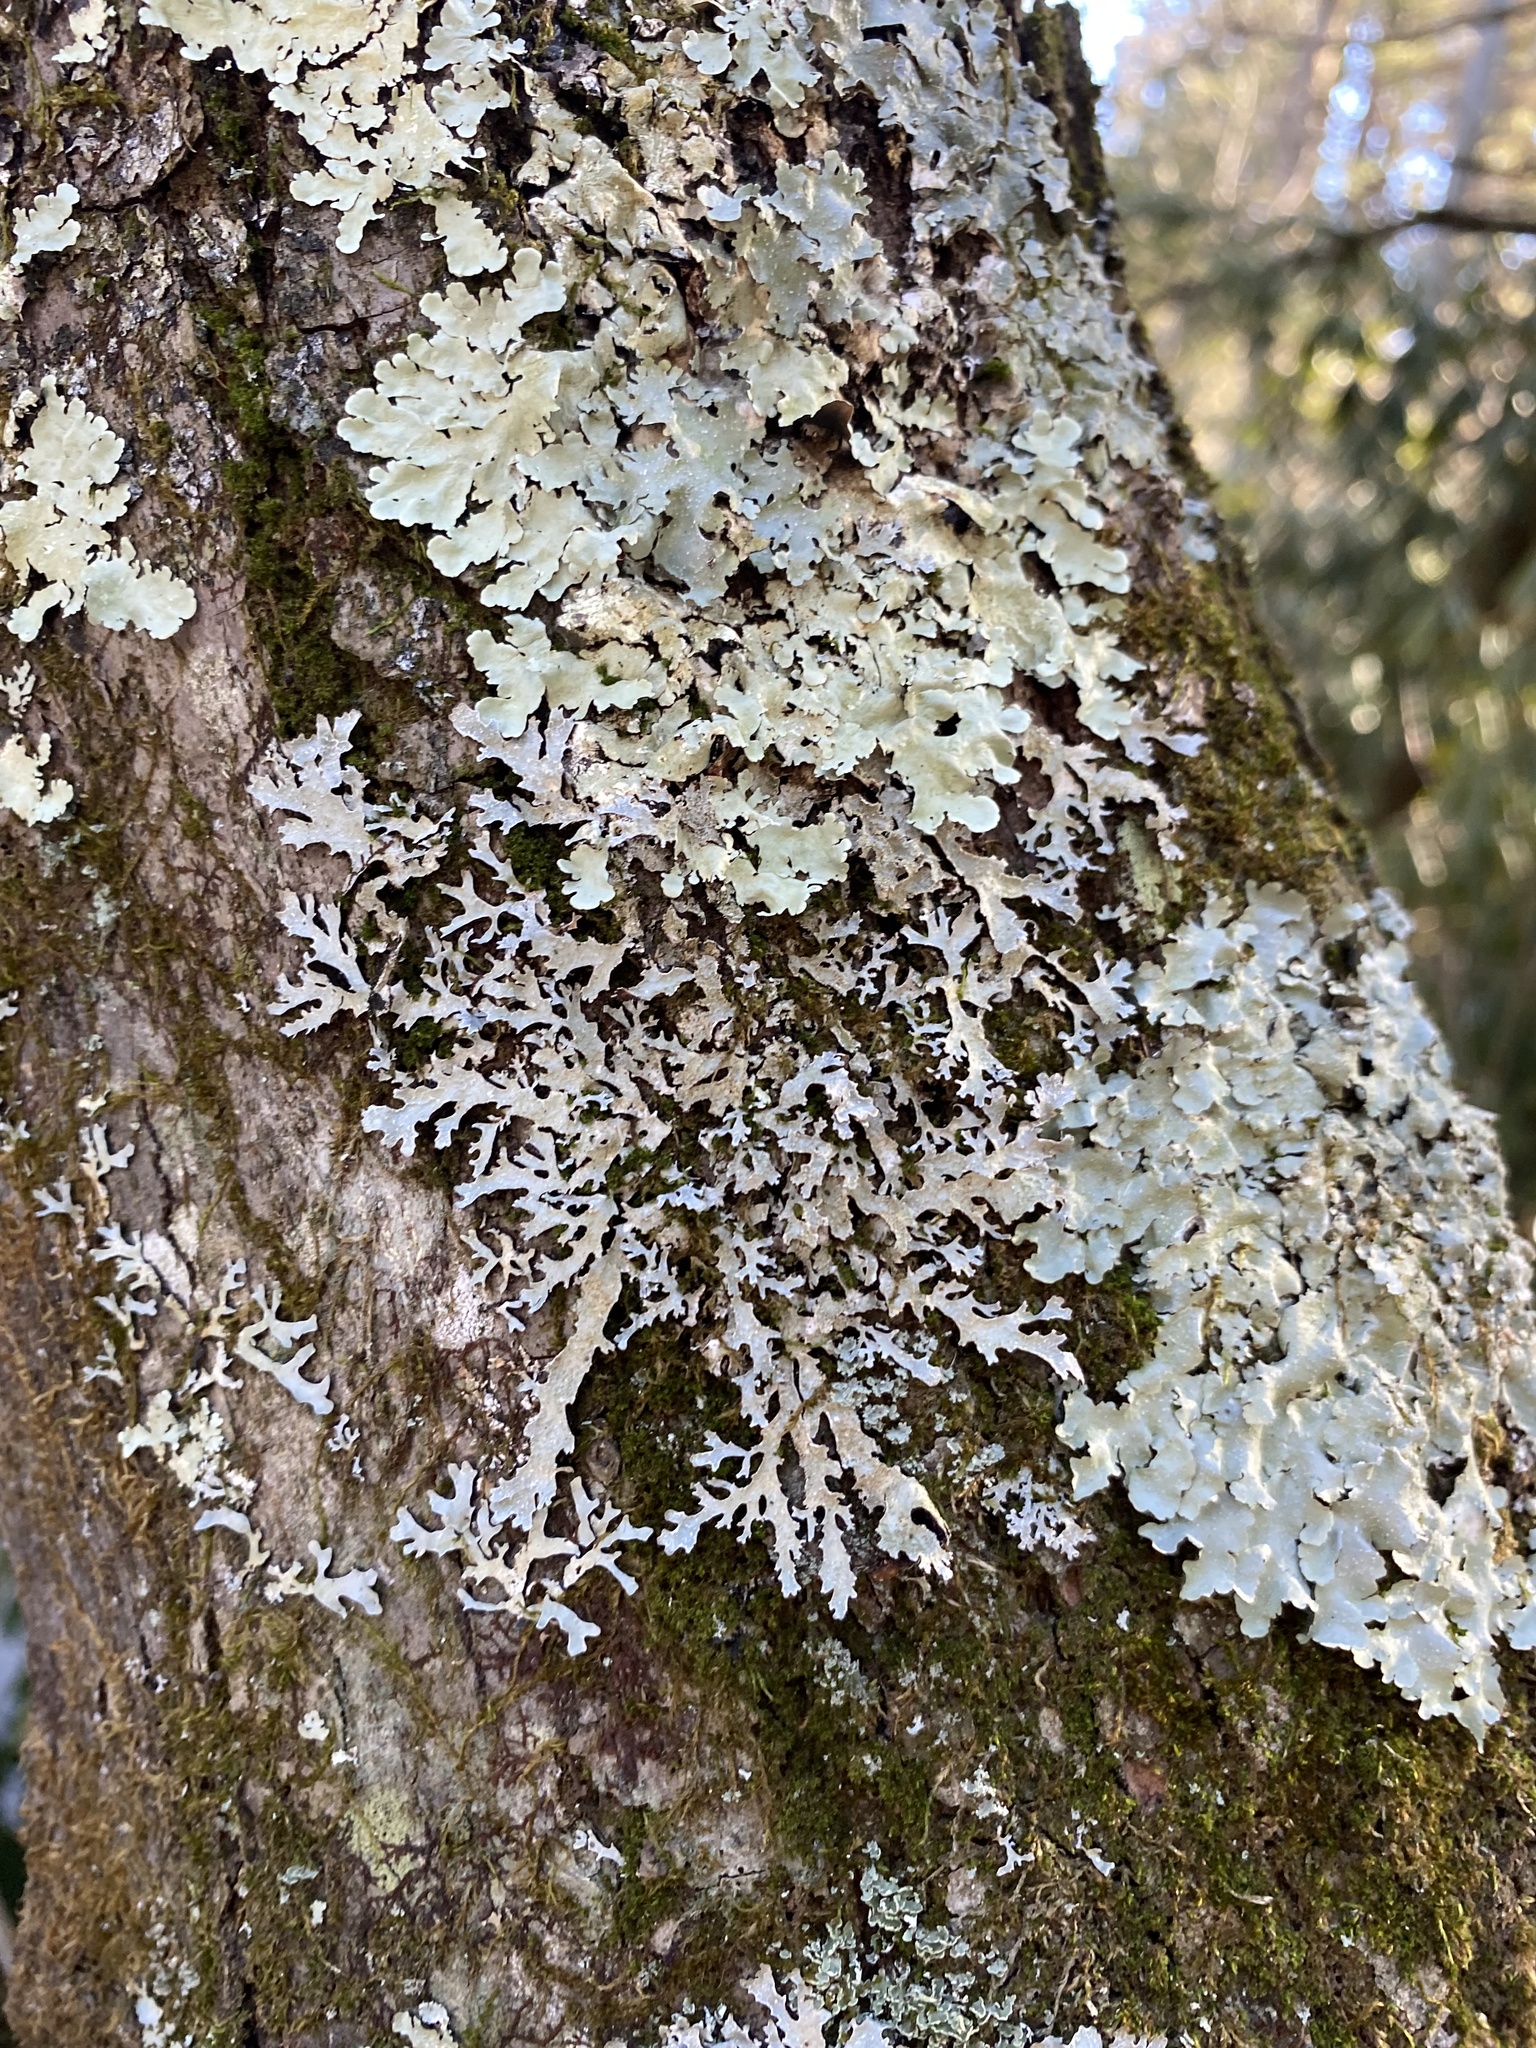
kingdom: Fungi
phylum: Ascomycota
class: Lecanoromycetes
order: Lecanorales
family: Parmeliaceae
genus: Parmelia
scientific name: Parmelia squarrosa
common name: Bottle brush shield lichen
